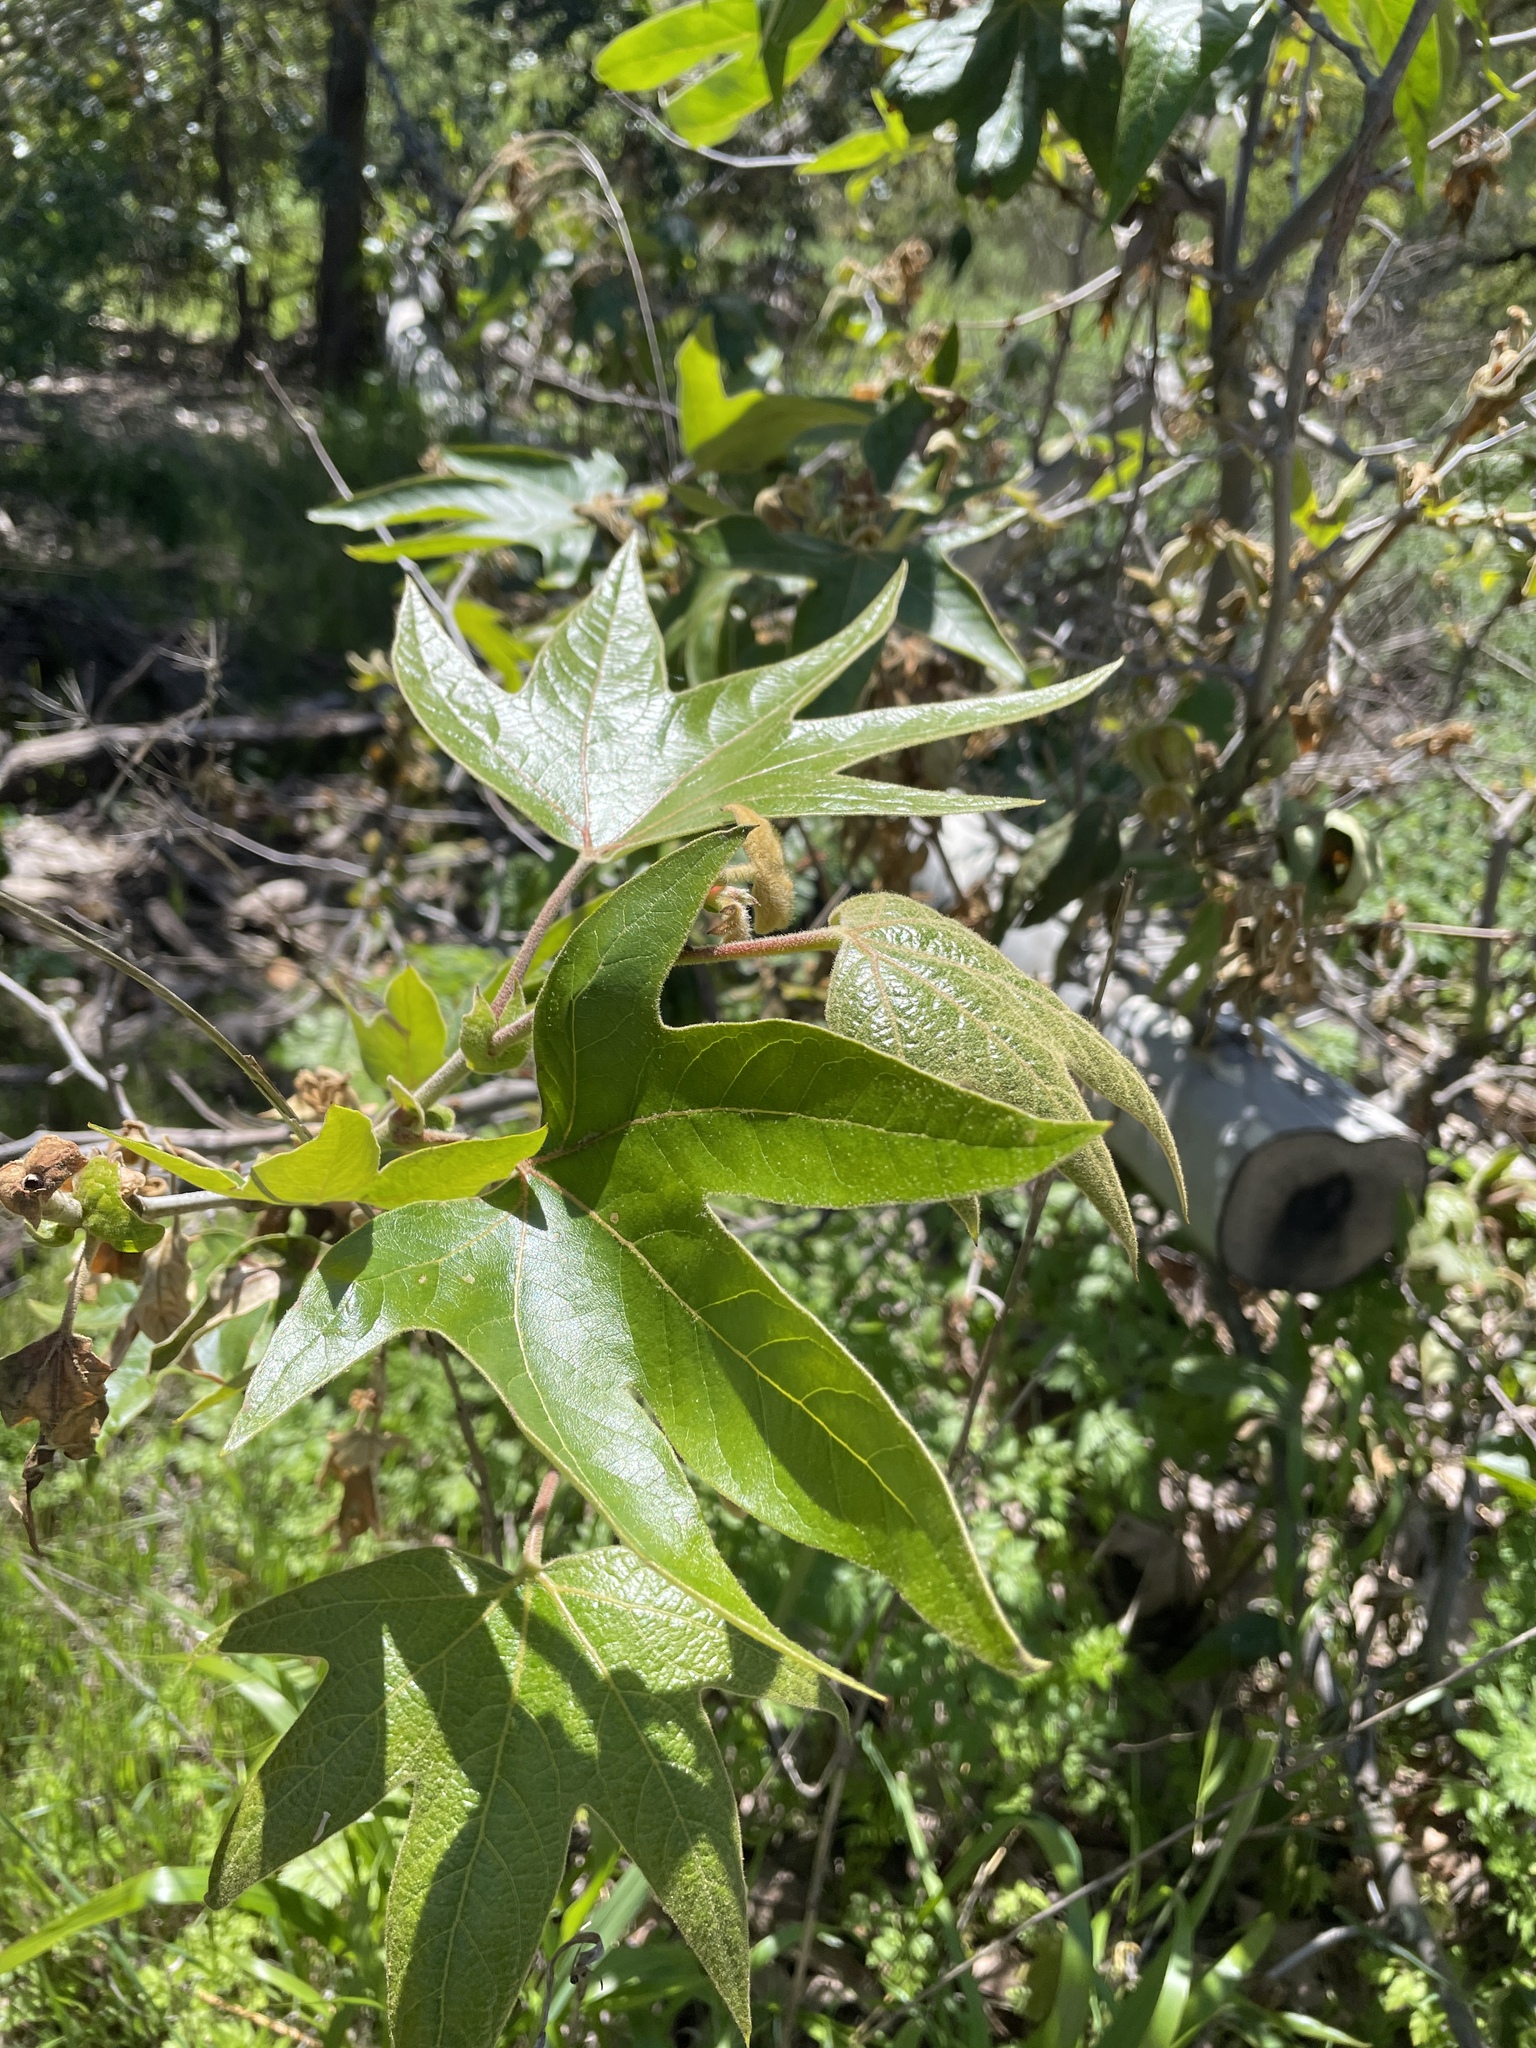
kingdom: Plantae
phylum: Tracheophyta
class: Magnoliopsida
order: Proteales
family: Platanaceae
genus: Platanus
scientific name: Platanus racemosa
